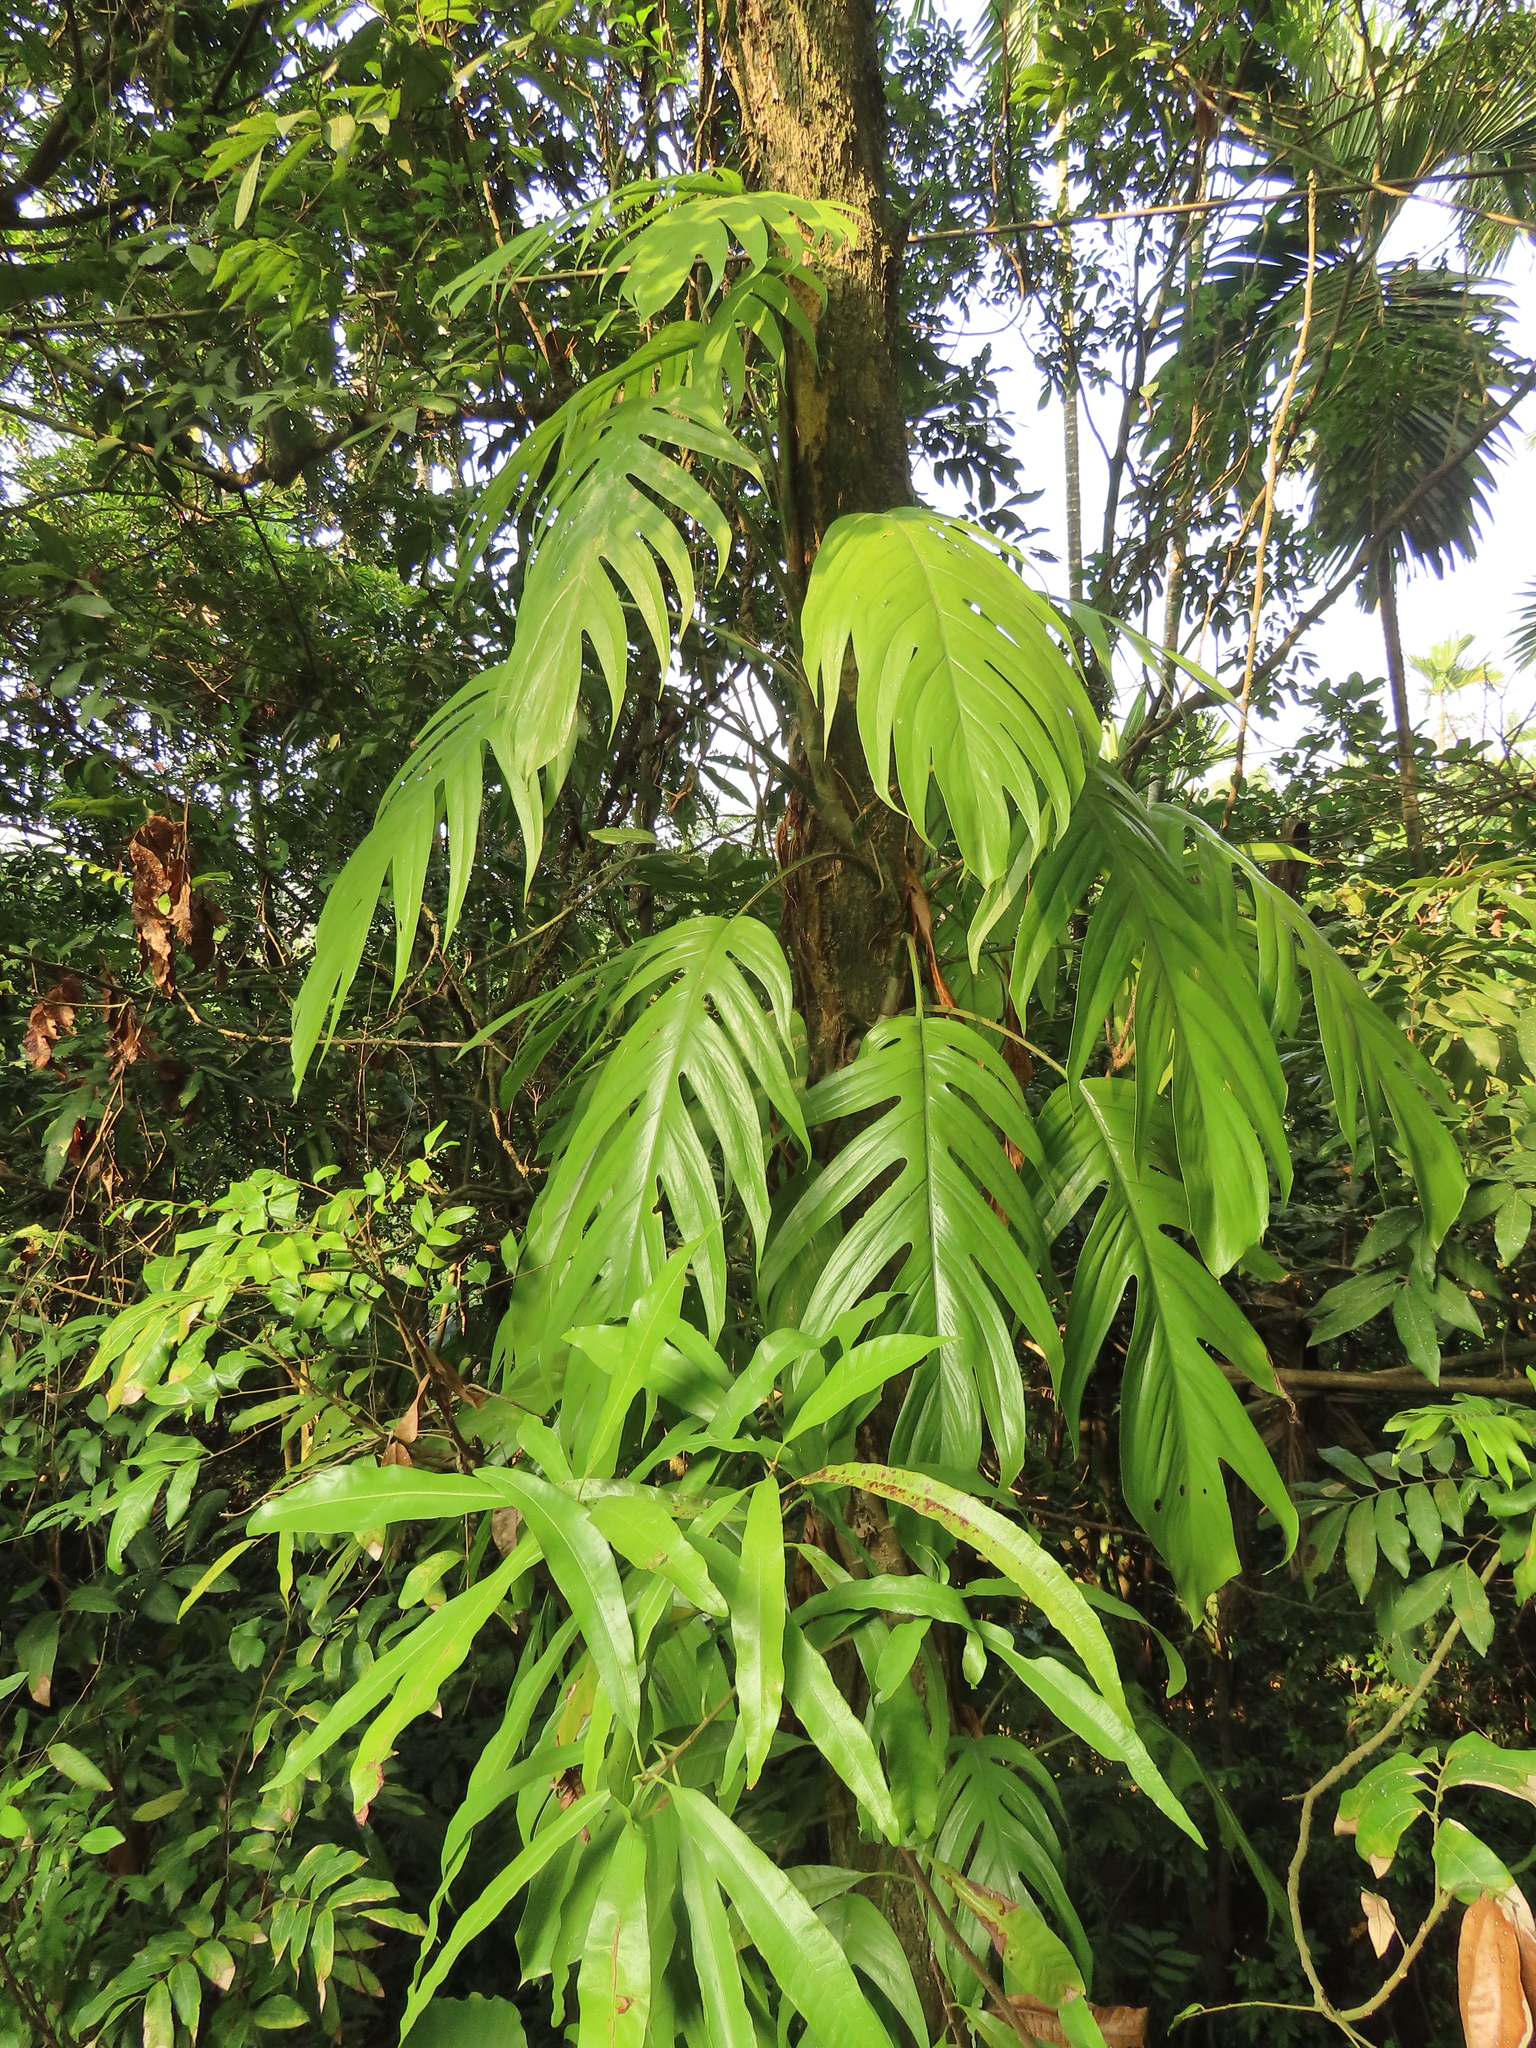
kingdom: Plantae
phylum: Tracheophyta
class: Liliopsida
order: Alismatales
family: Araceae
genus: Epipremnum
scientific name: Epipremnum pinnatum
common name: Centipede tongavine
